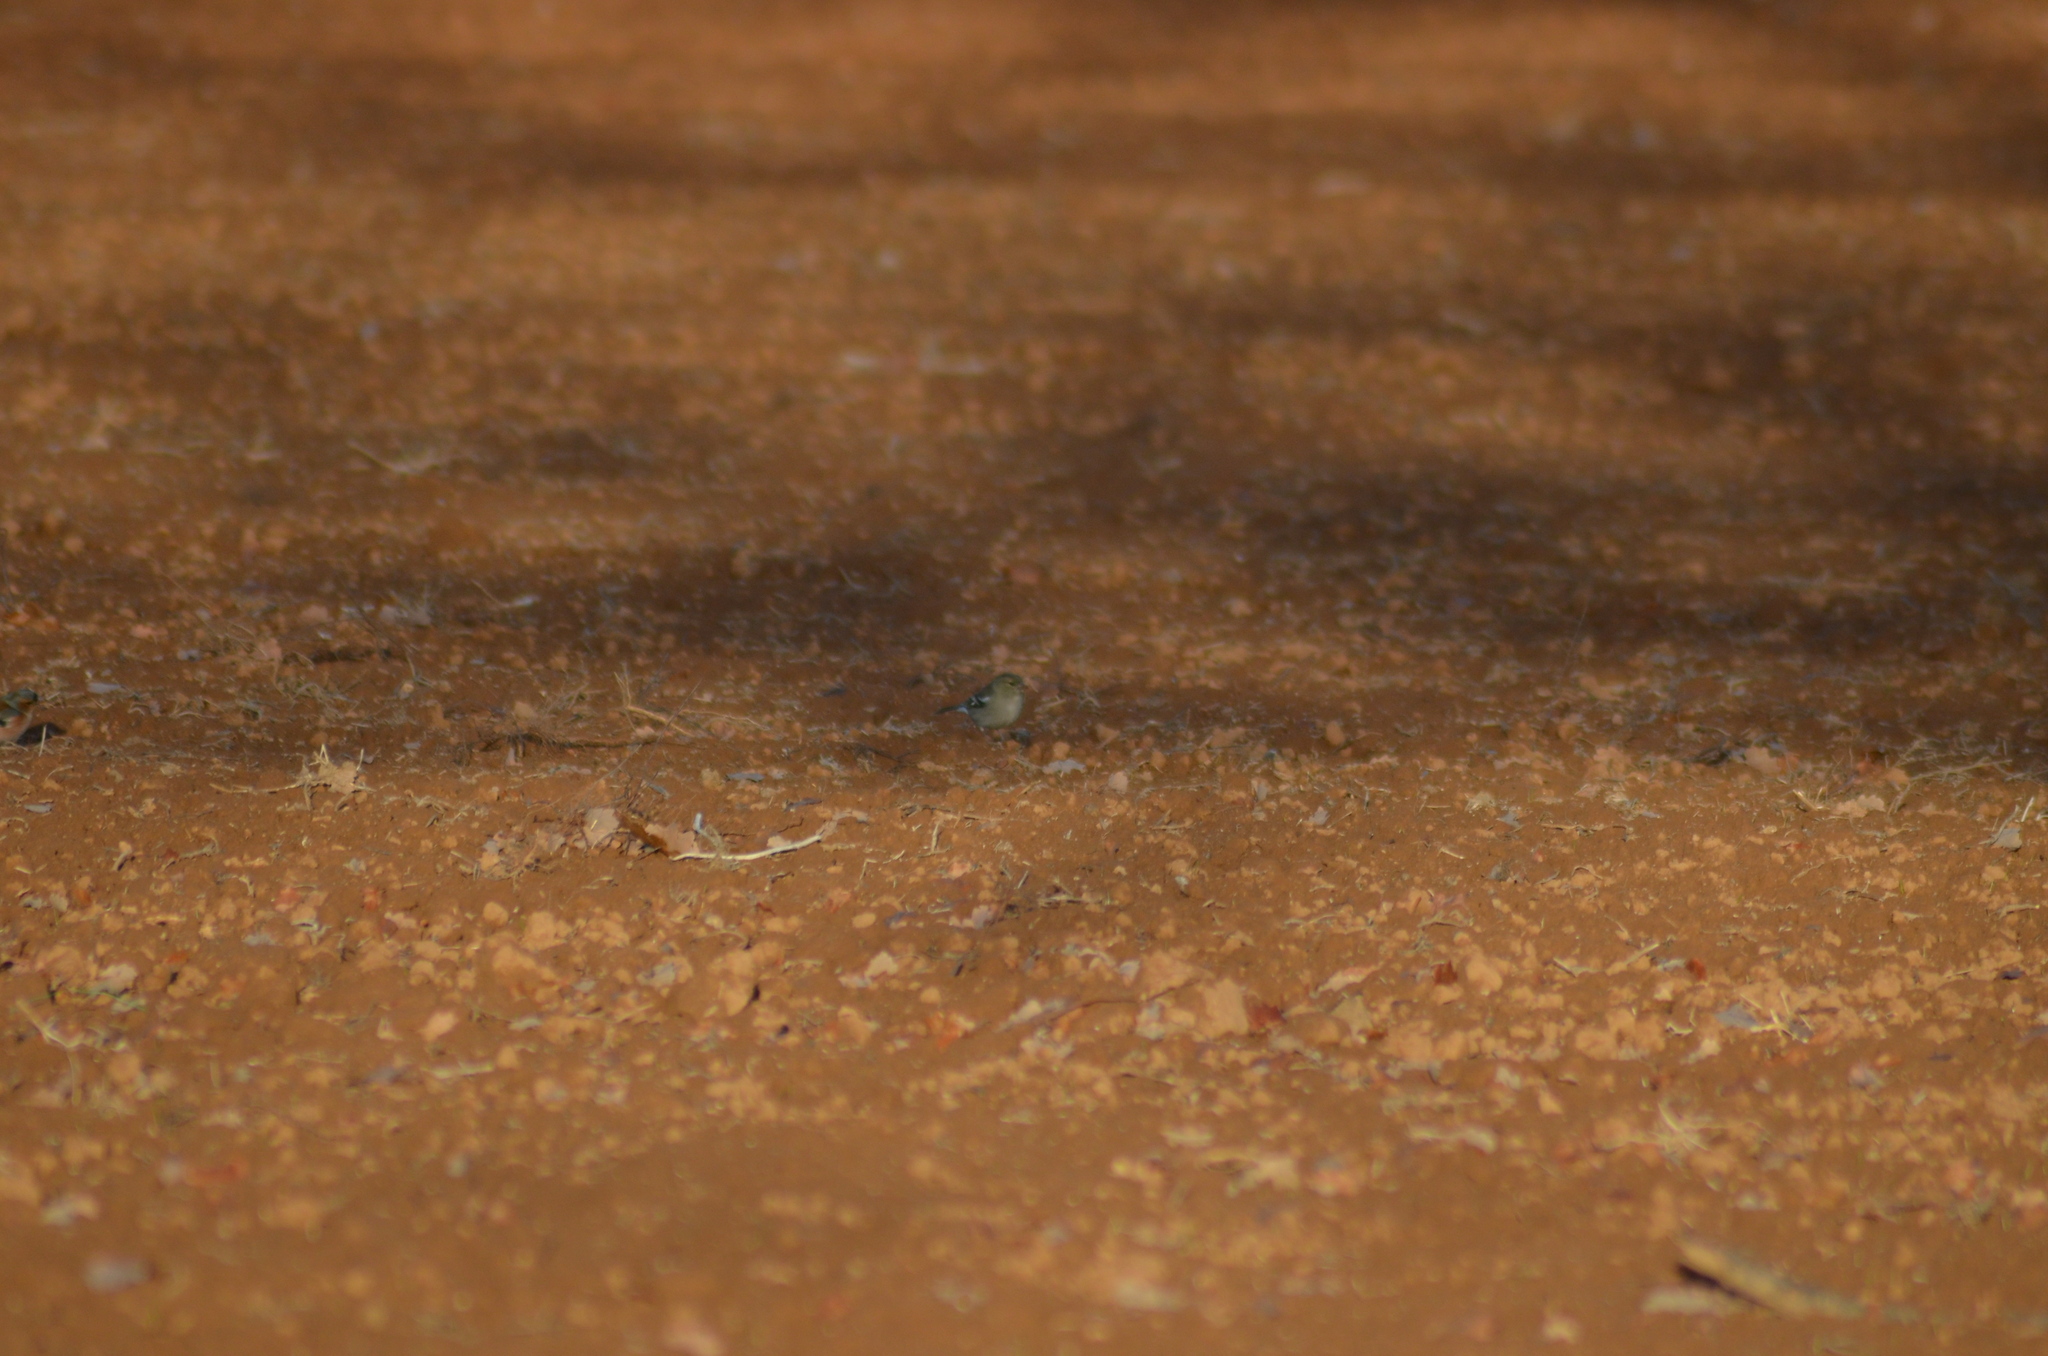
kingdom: Animalia
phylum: Chordata
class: Aves
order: Passeriformes
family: Fringillidae
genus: Fringilla
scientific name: Fringilla coelebs
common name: Common chaffinch
